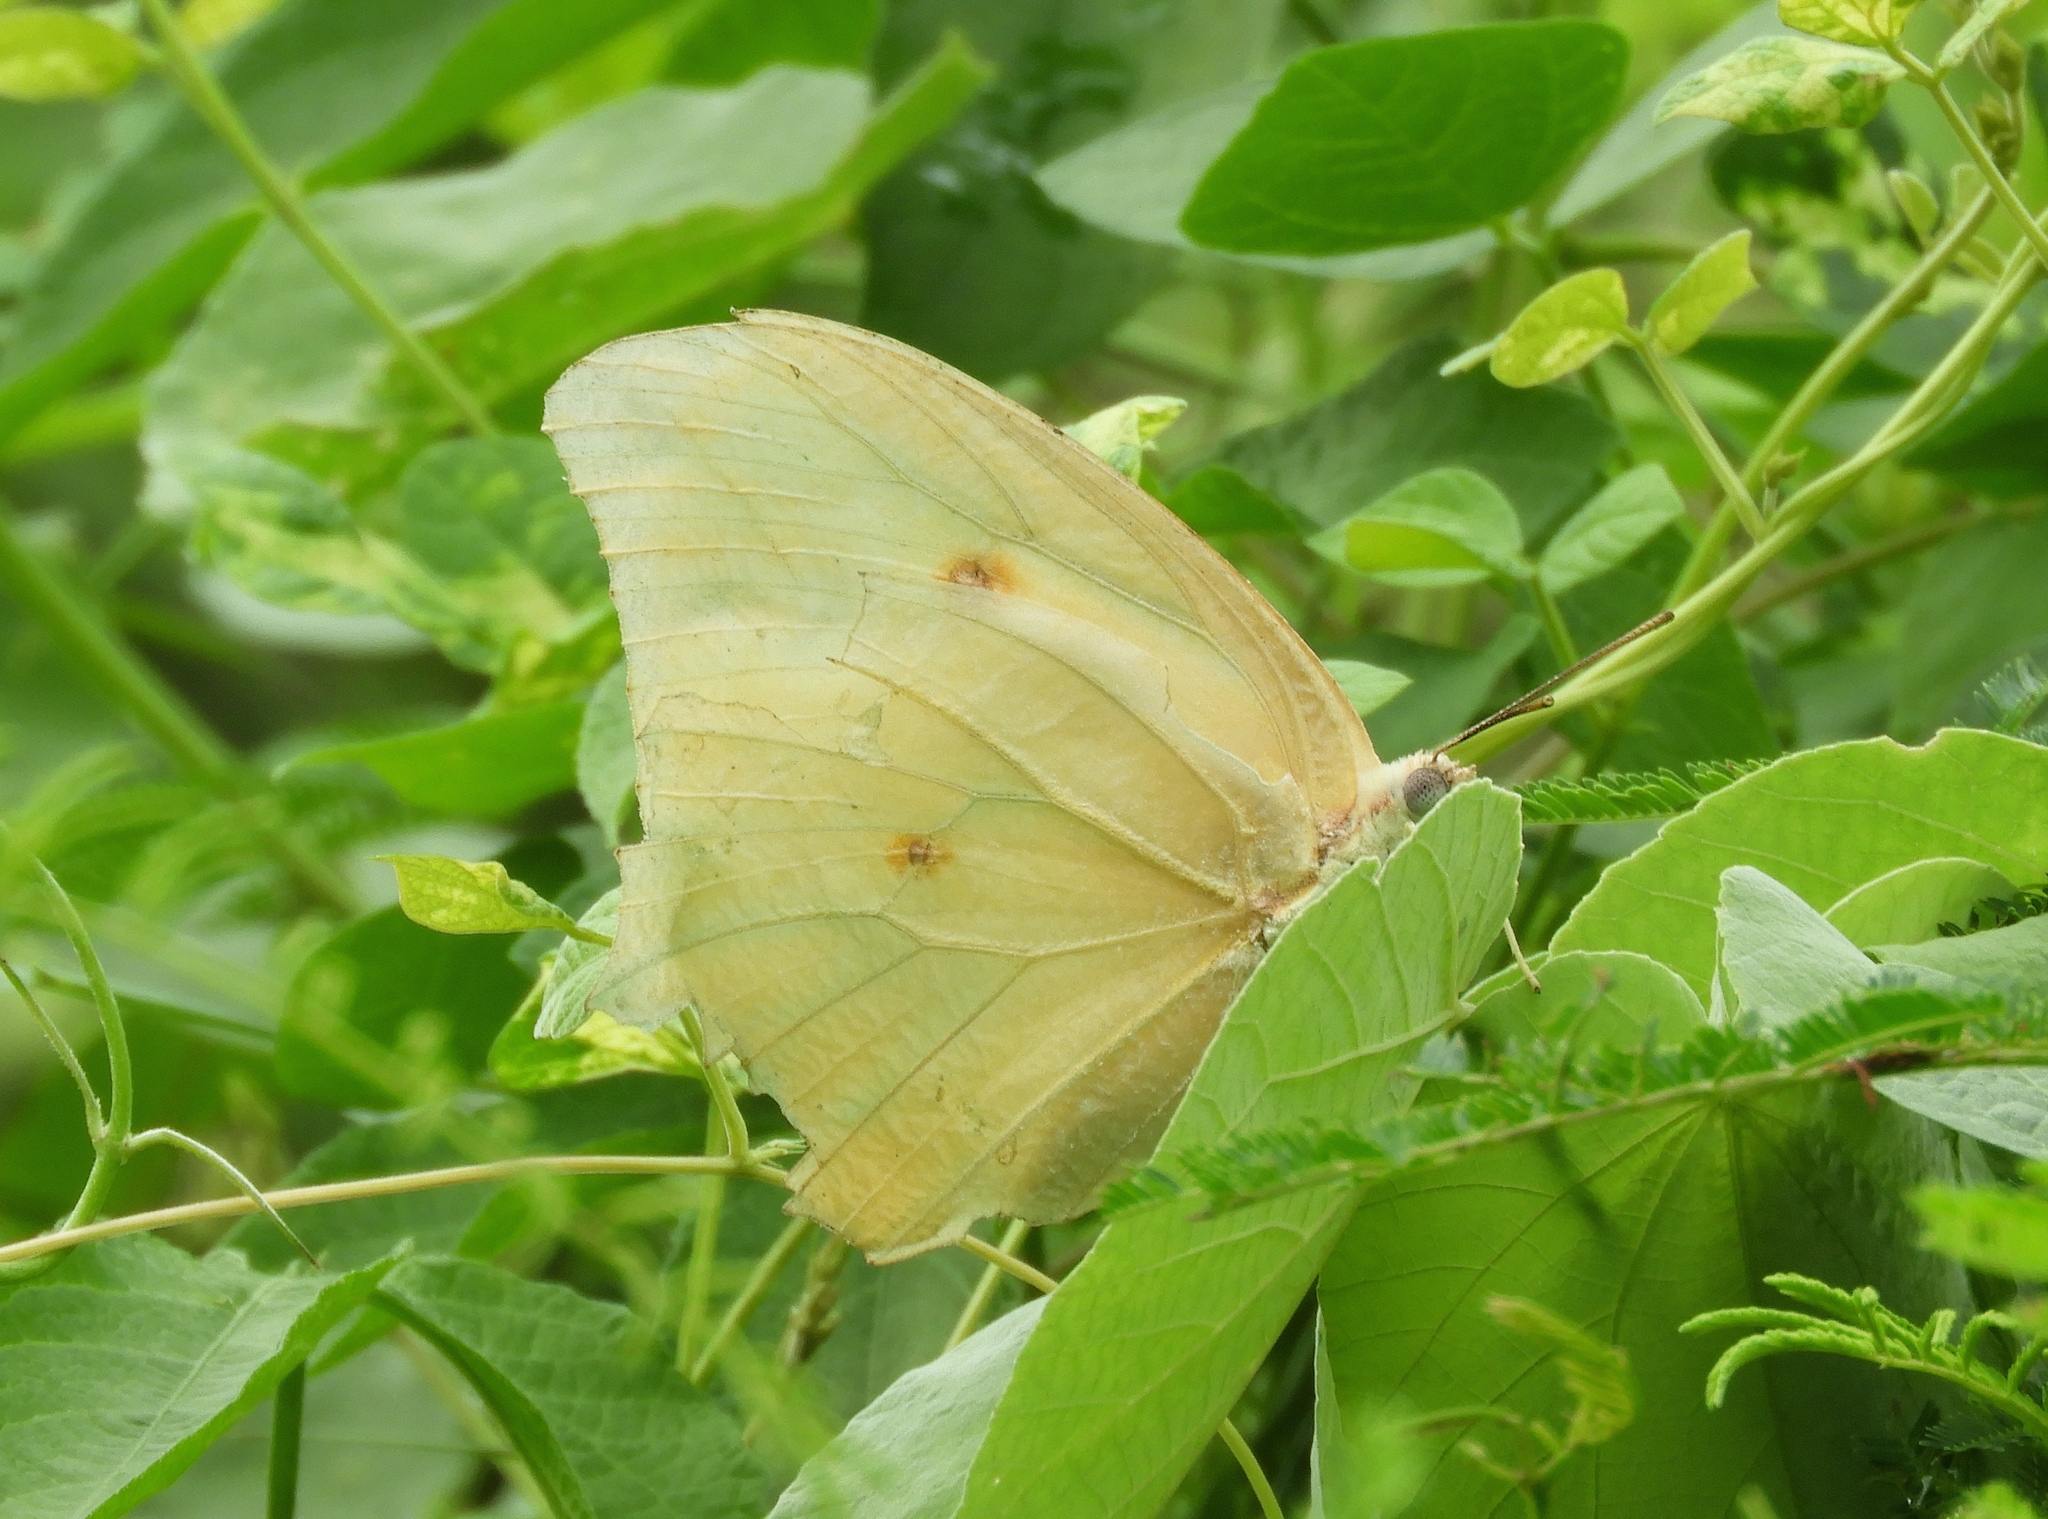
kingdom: Animalia
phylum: Arthropoda
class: Insecta
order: Lepidoptera
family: Pieridae
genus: Anteos
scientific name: Anteos clorinde
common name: White angled sulphur
